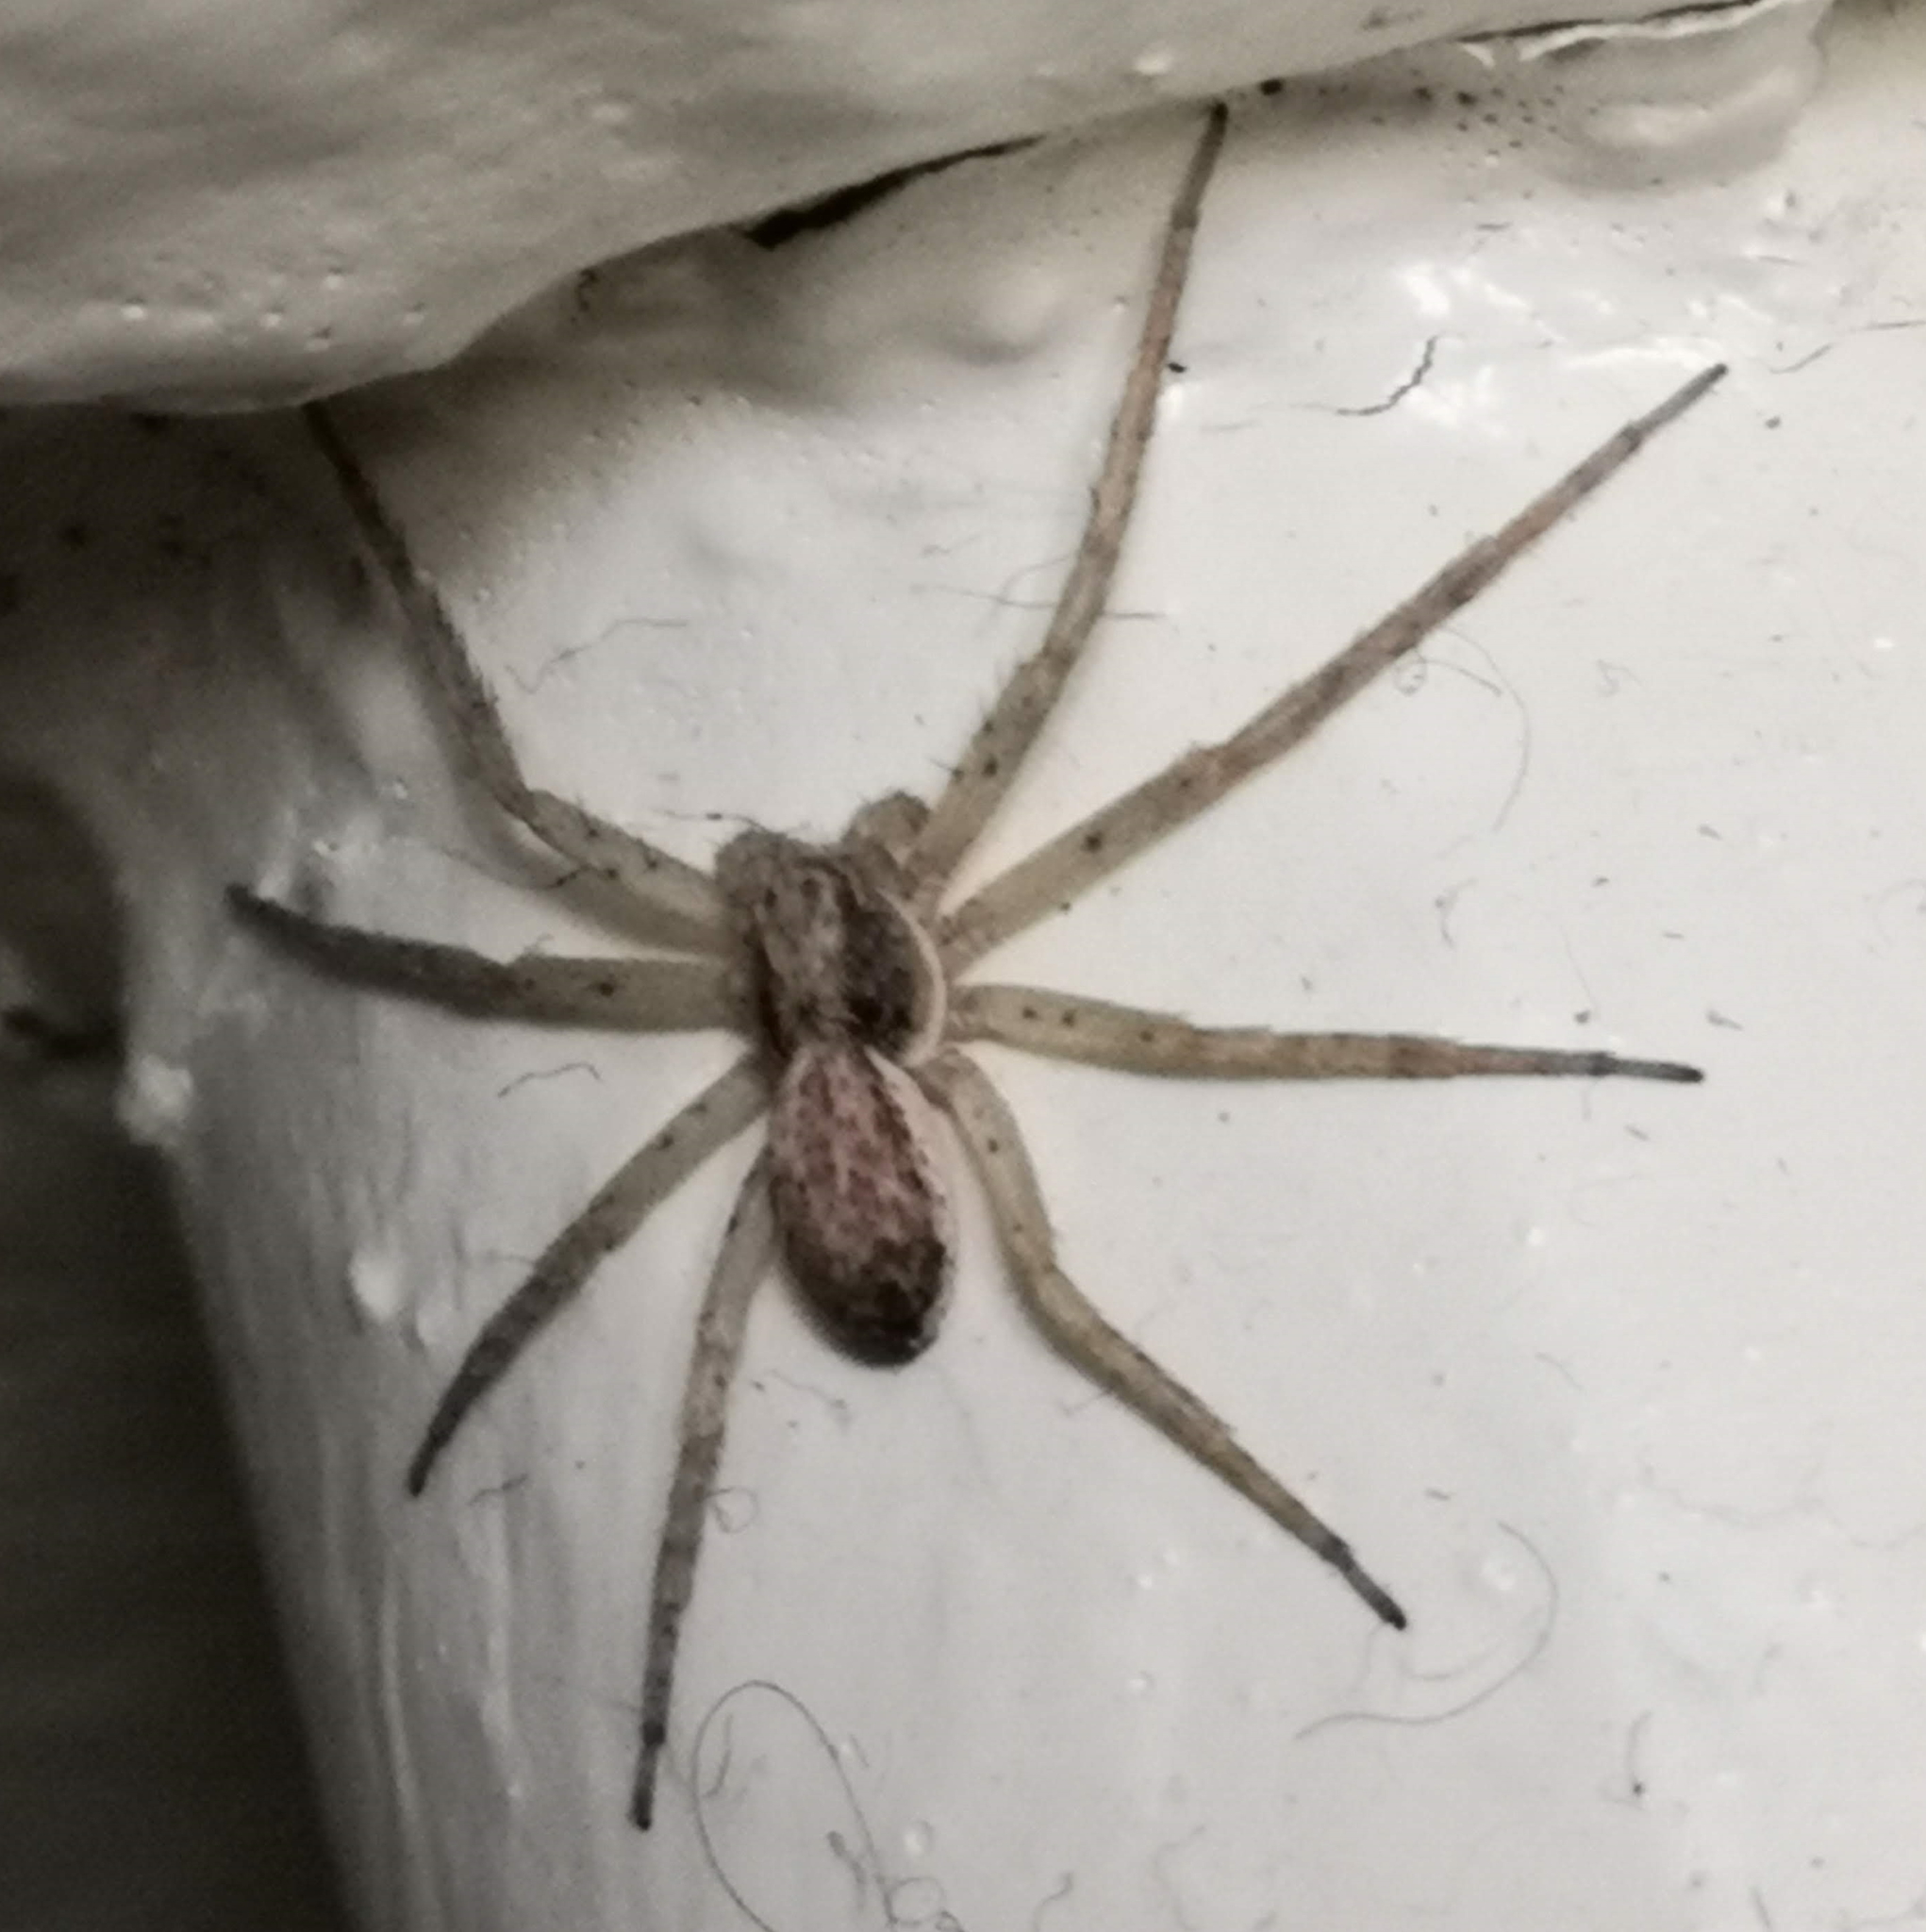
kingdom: Animalia
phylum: Arthropoda
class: Arachnida
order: Araneae
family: Philodromidae
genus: Philodromus
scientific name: Philodromus dispar
